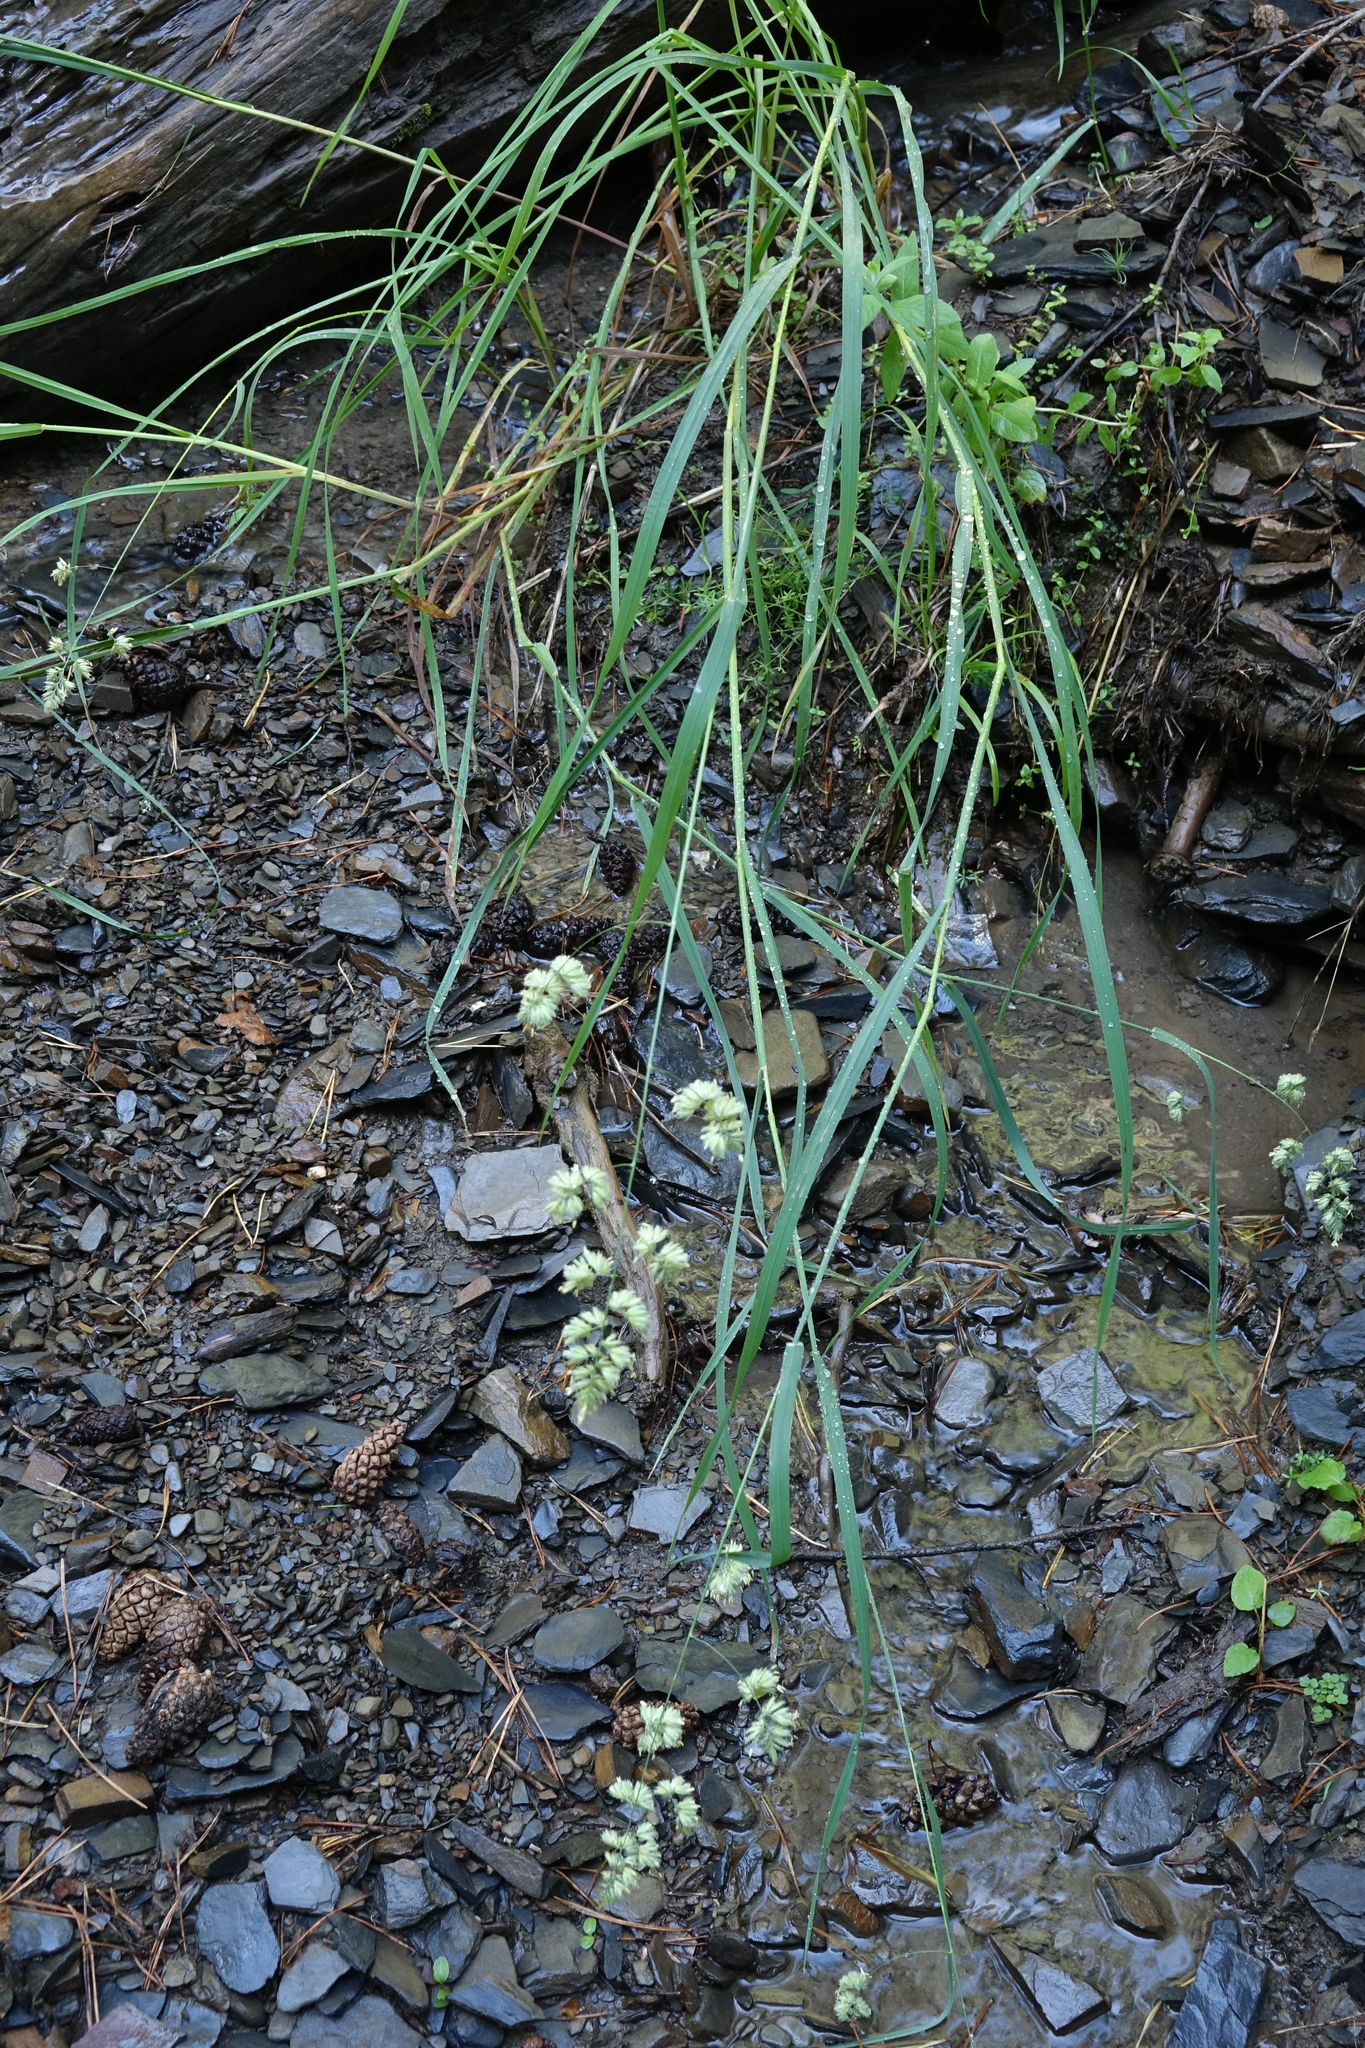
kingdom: Plantae
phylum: Tracheophyta
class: Liliopsida
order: Poales
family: Poaceae
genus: Dactylis
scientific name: Dactylis glomerata
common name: Orchardgrass
